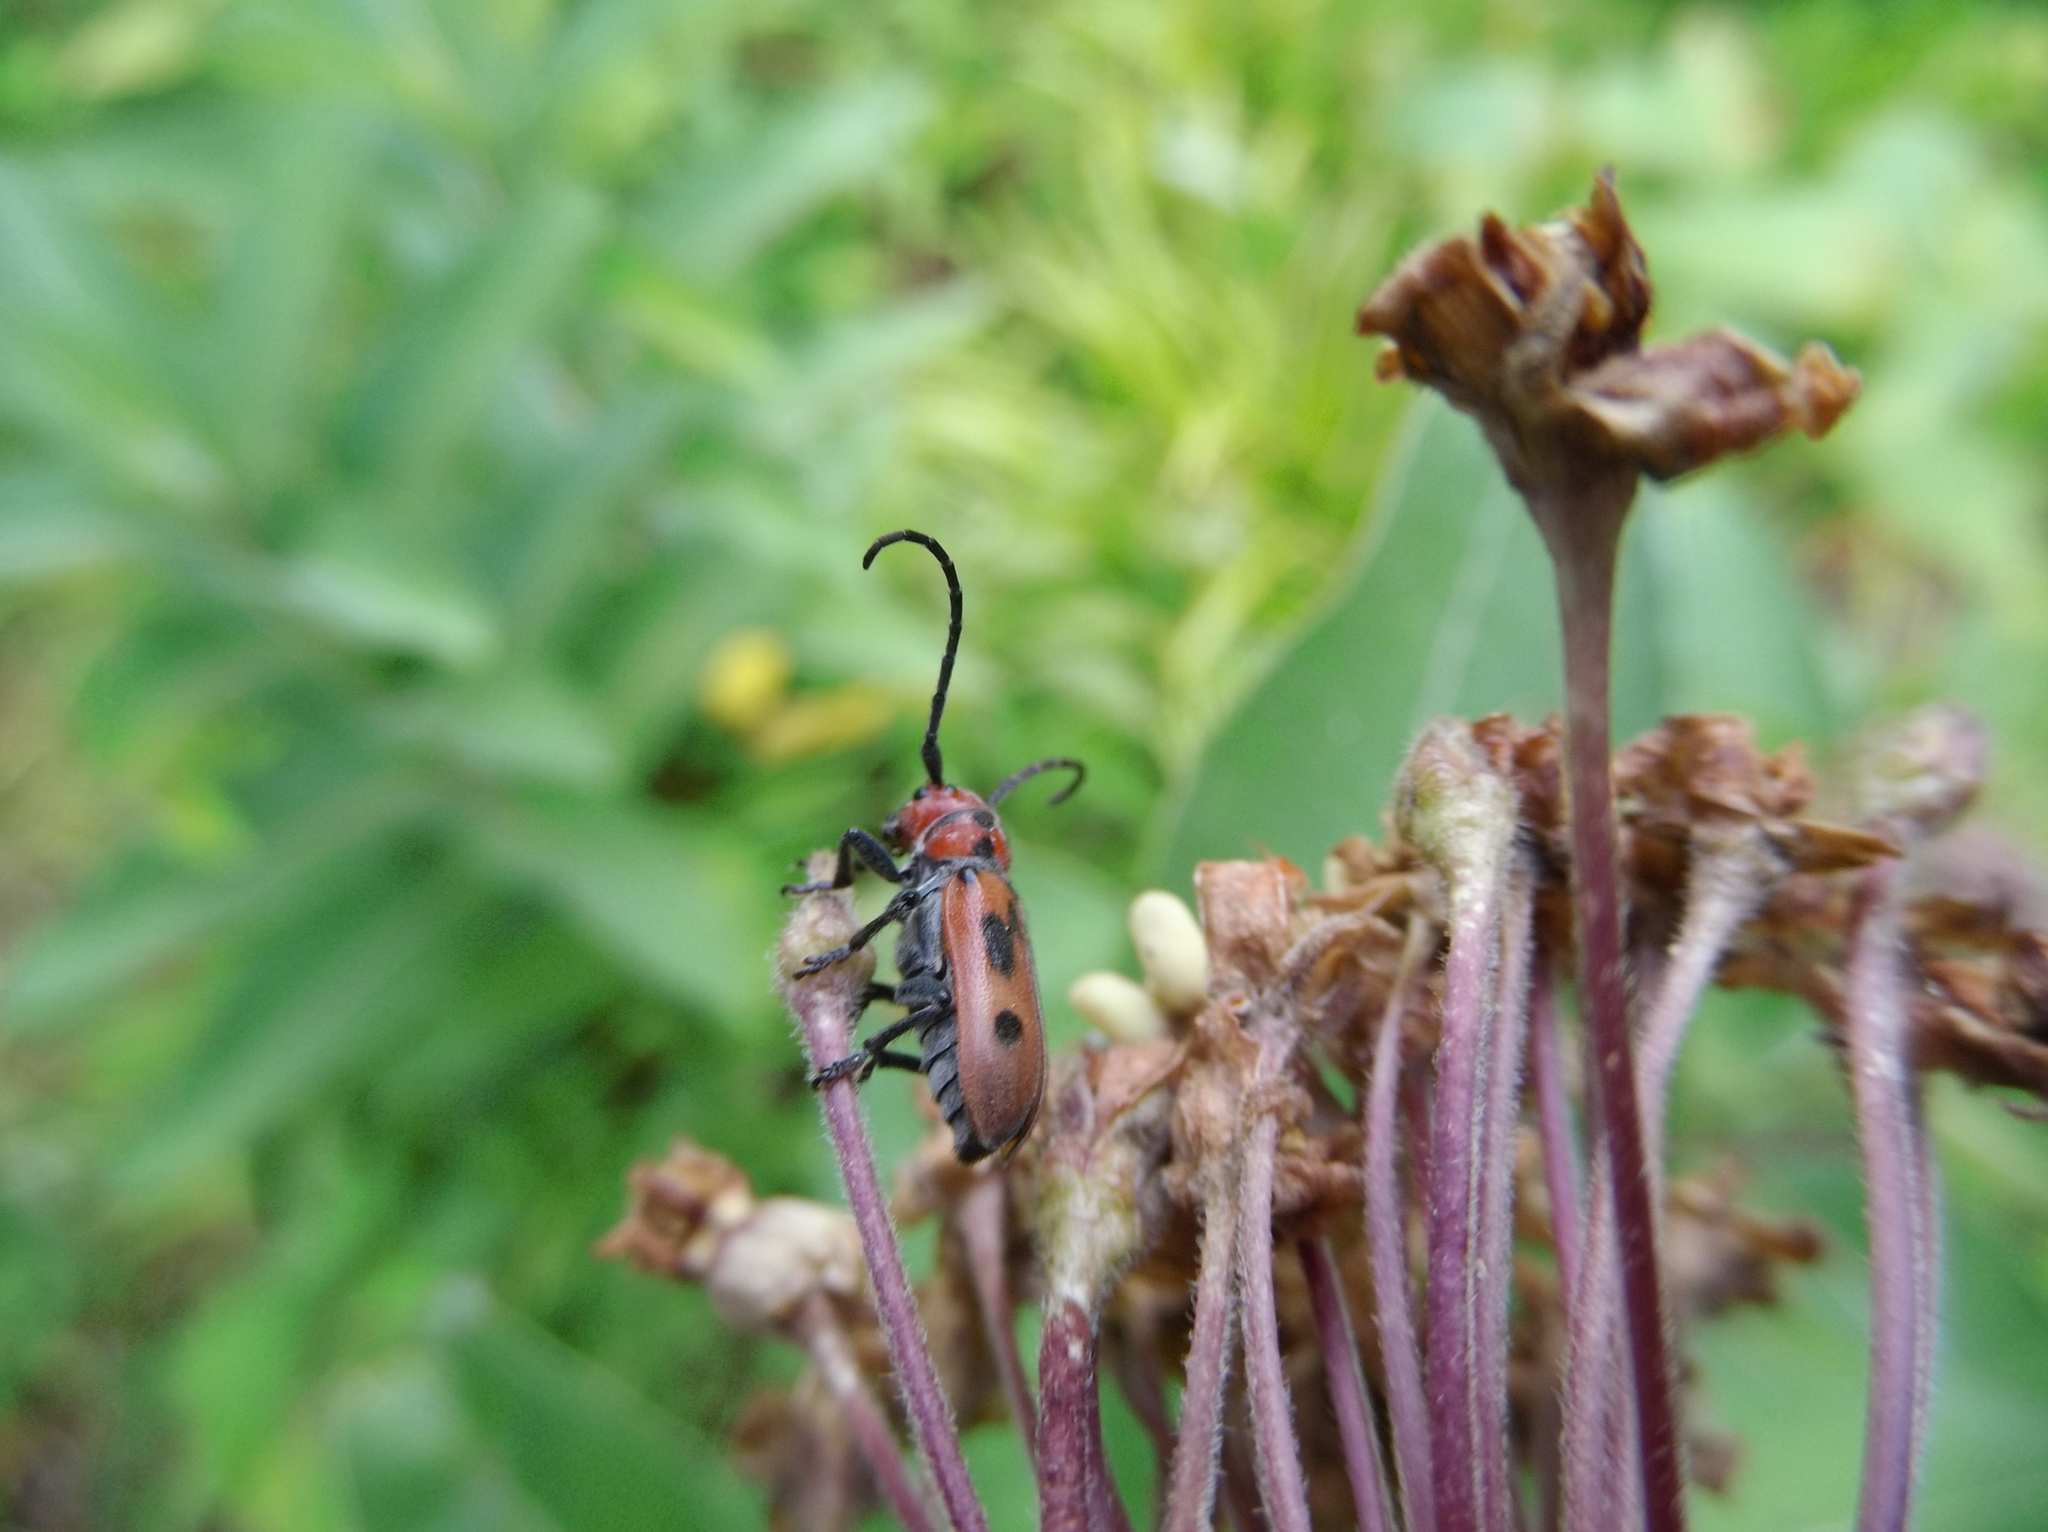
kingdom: Animalia
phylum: Arthropoda
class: Insecta
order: Coleoptera
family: Cerambycidae
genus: Tetraopes
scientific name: Tetraopes tetrophthalmus
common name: Red milkweed beetle
